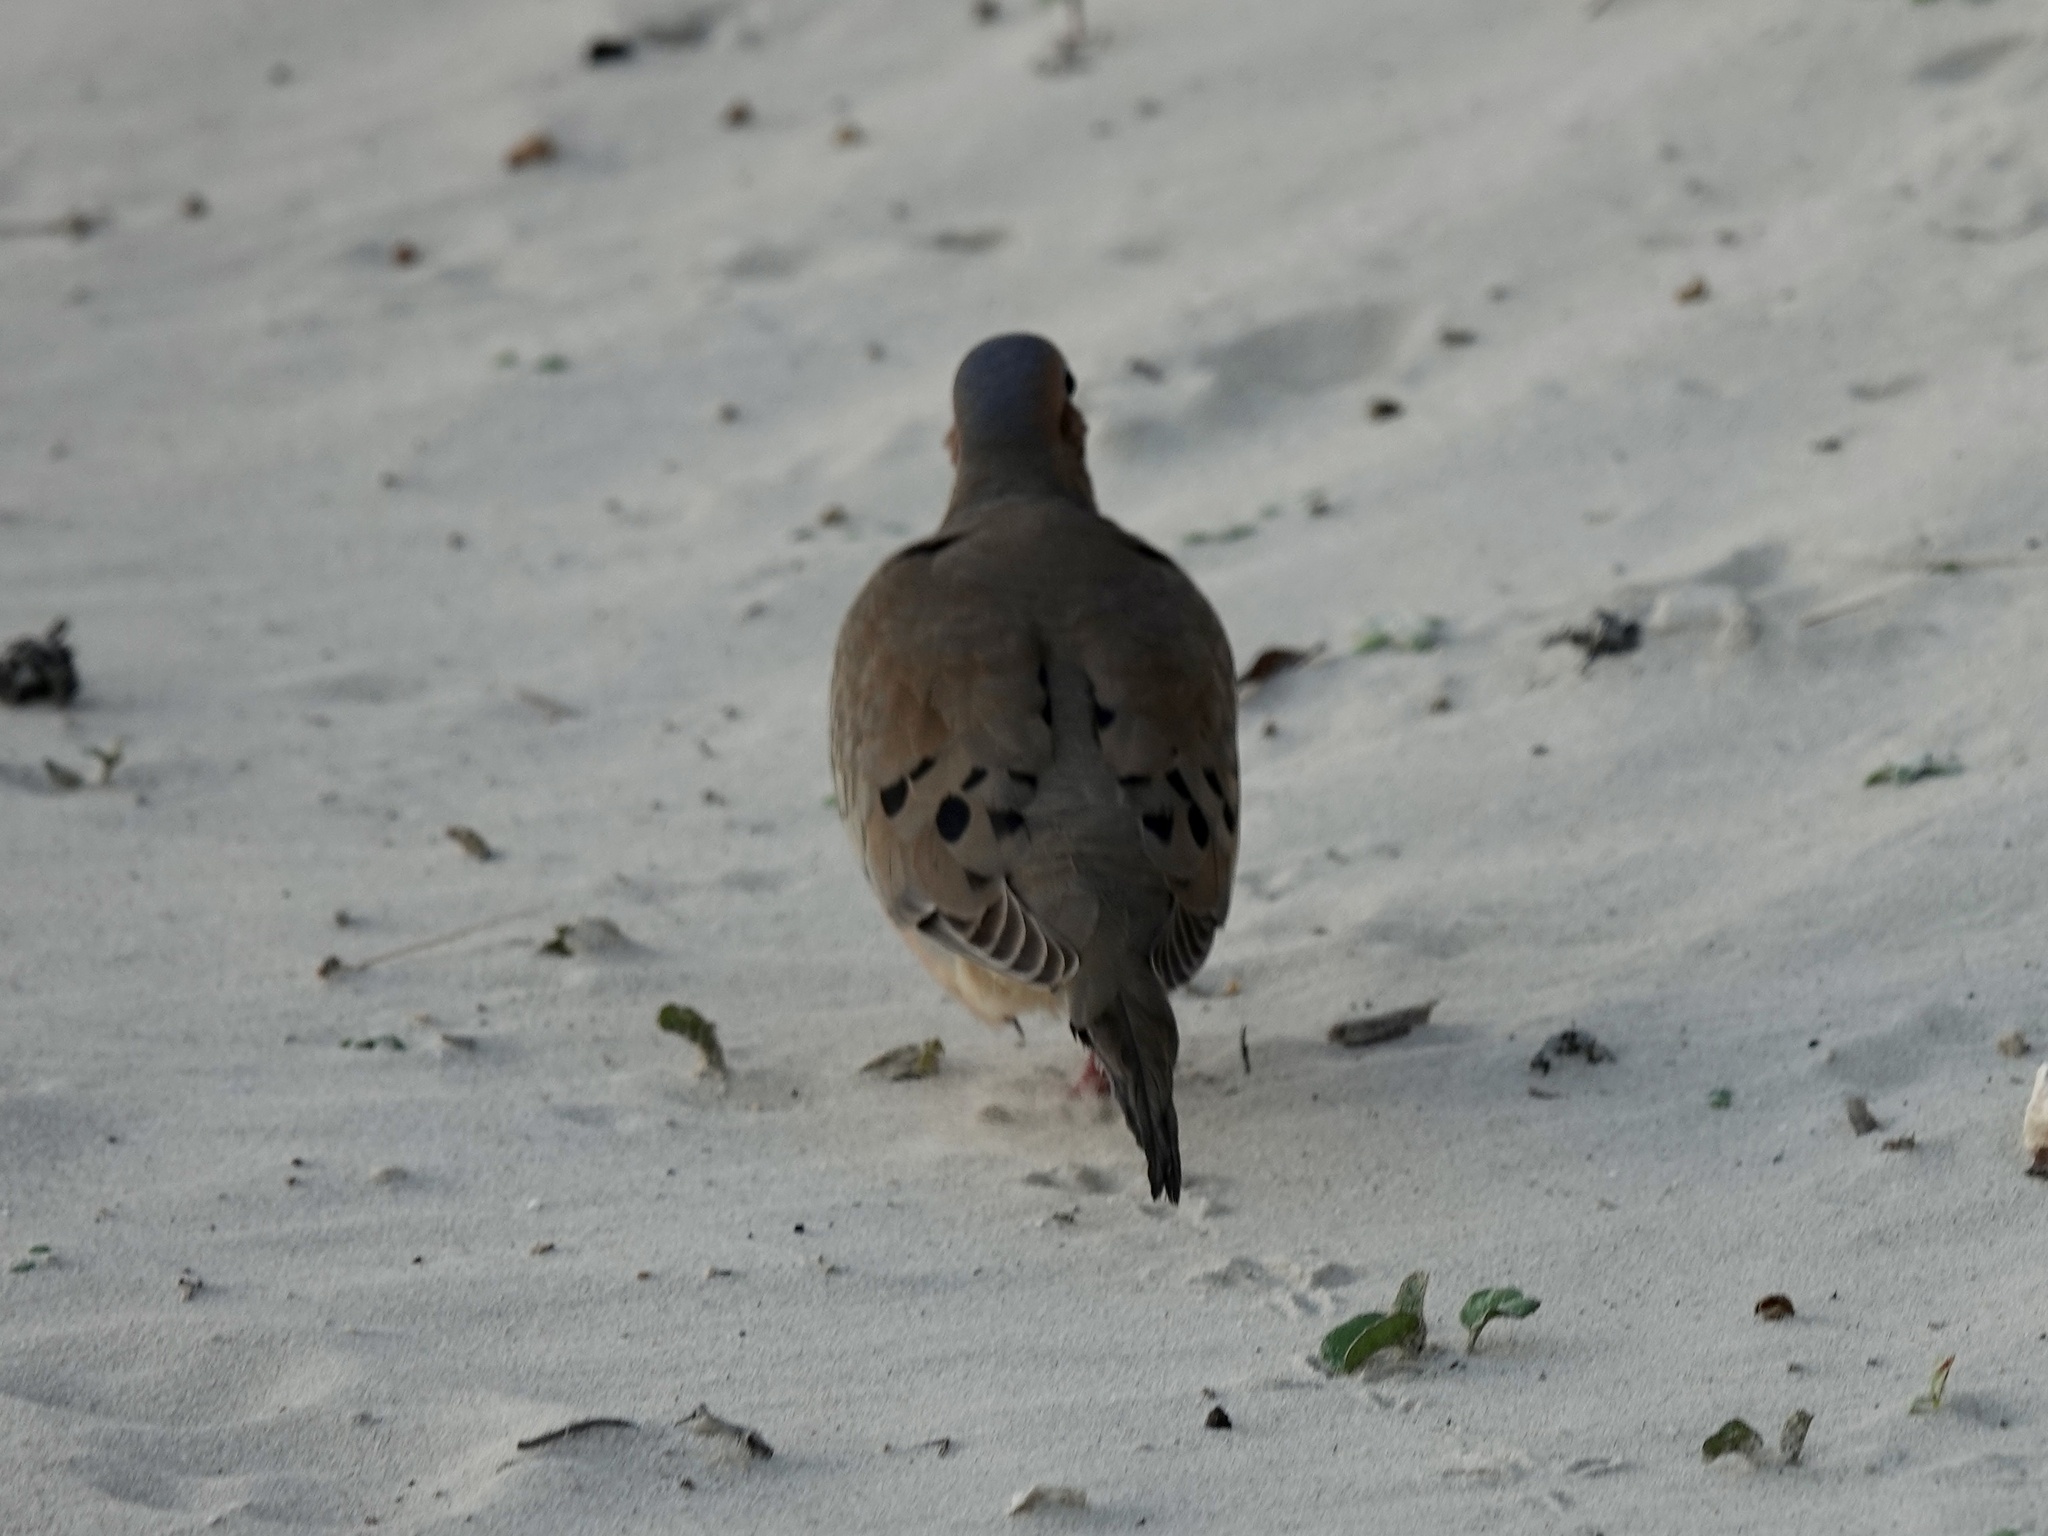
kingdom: Animalia
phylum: Chordata
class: Aves
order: Columbiformes
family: Columbidae
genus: Zenaida
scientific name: Zenaida macroura
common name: Mourning dove
